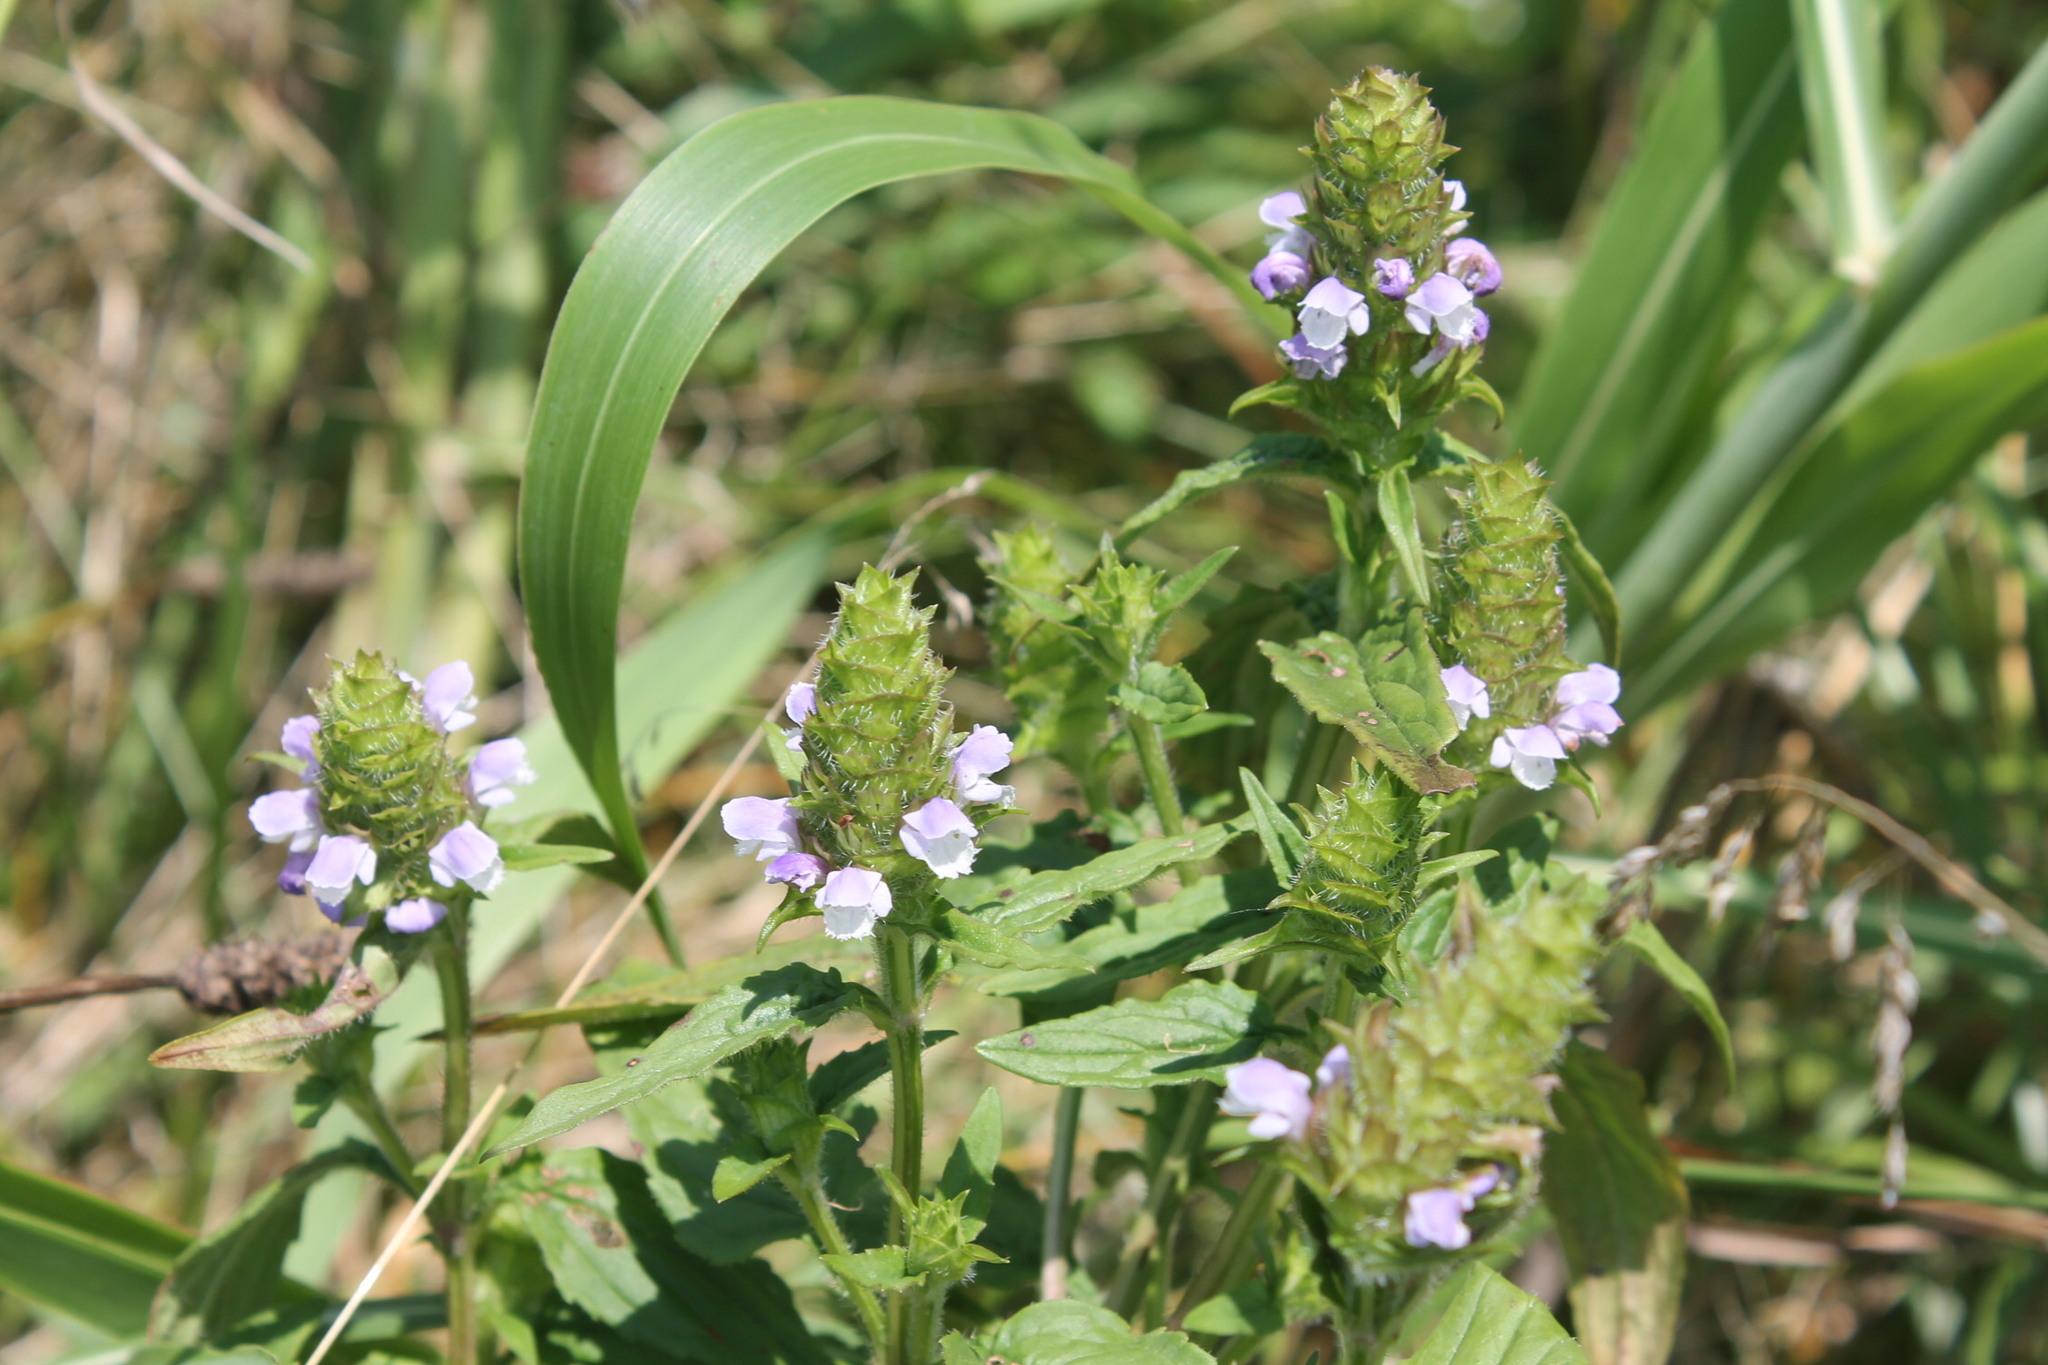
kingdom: Plantae
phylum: Tracheophyta
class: Magnoliopsida
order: Lamiales
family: Lamiaceae
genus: Prunella
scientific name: Prunella vulgaris
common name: Heal-all
